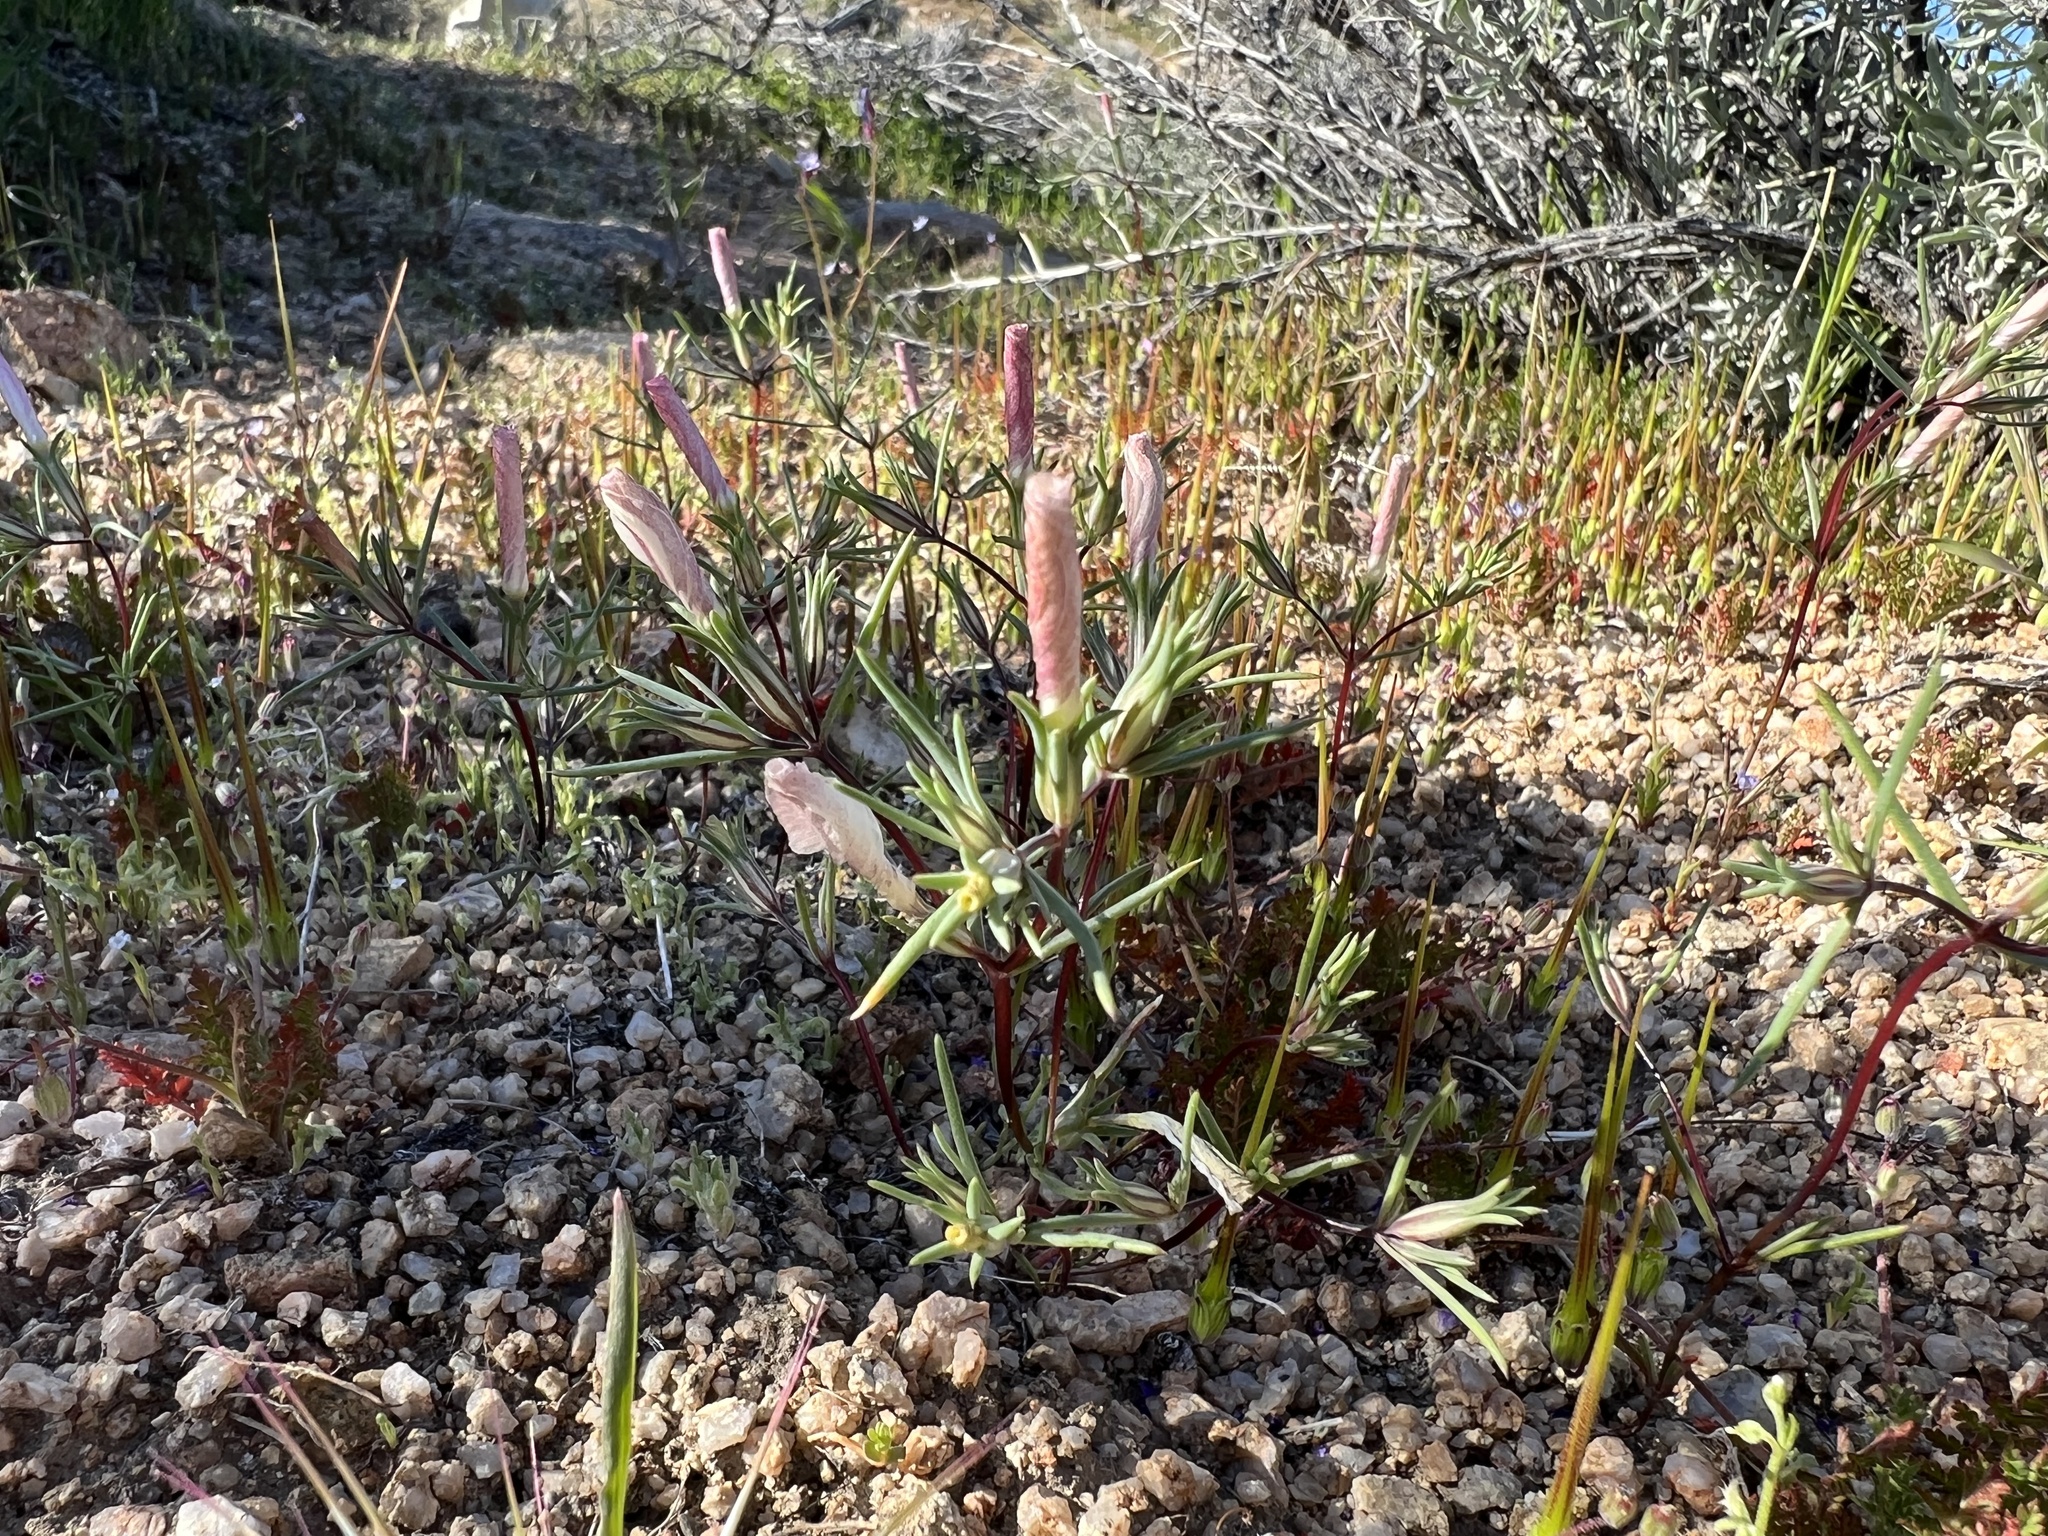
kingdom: Plantae
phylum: Tracheophyta
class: Magnoliopsida
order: Ericales
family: Polemoniaceae
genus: Linanthus
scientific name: Linanthus dichotomus
